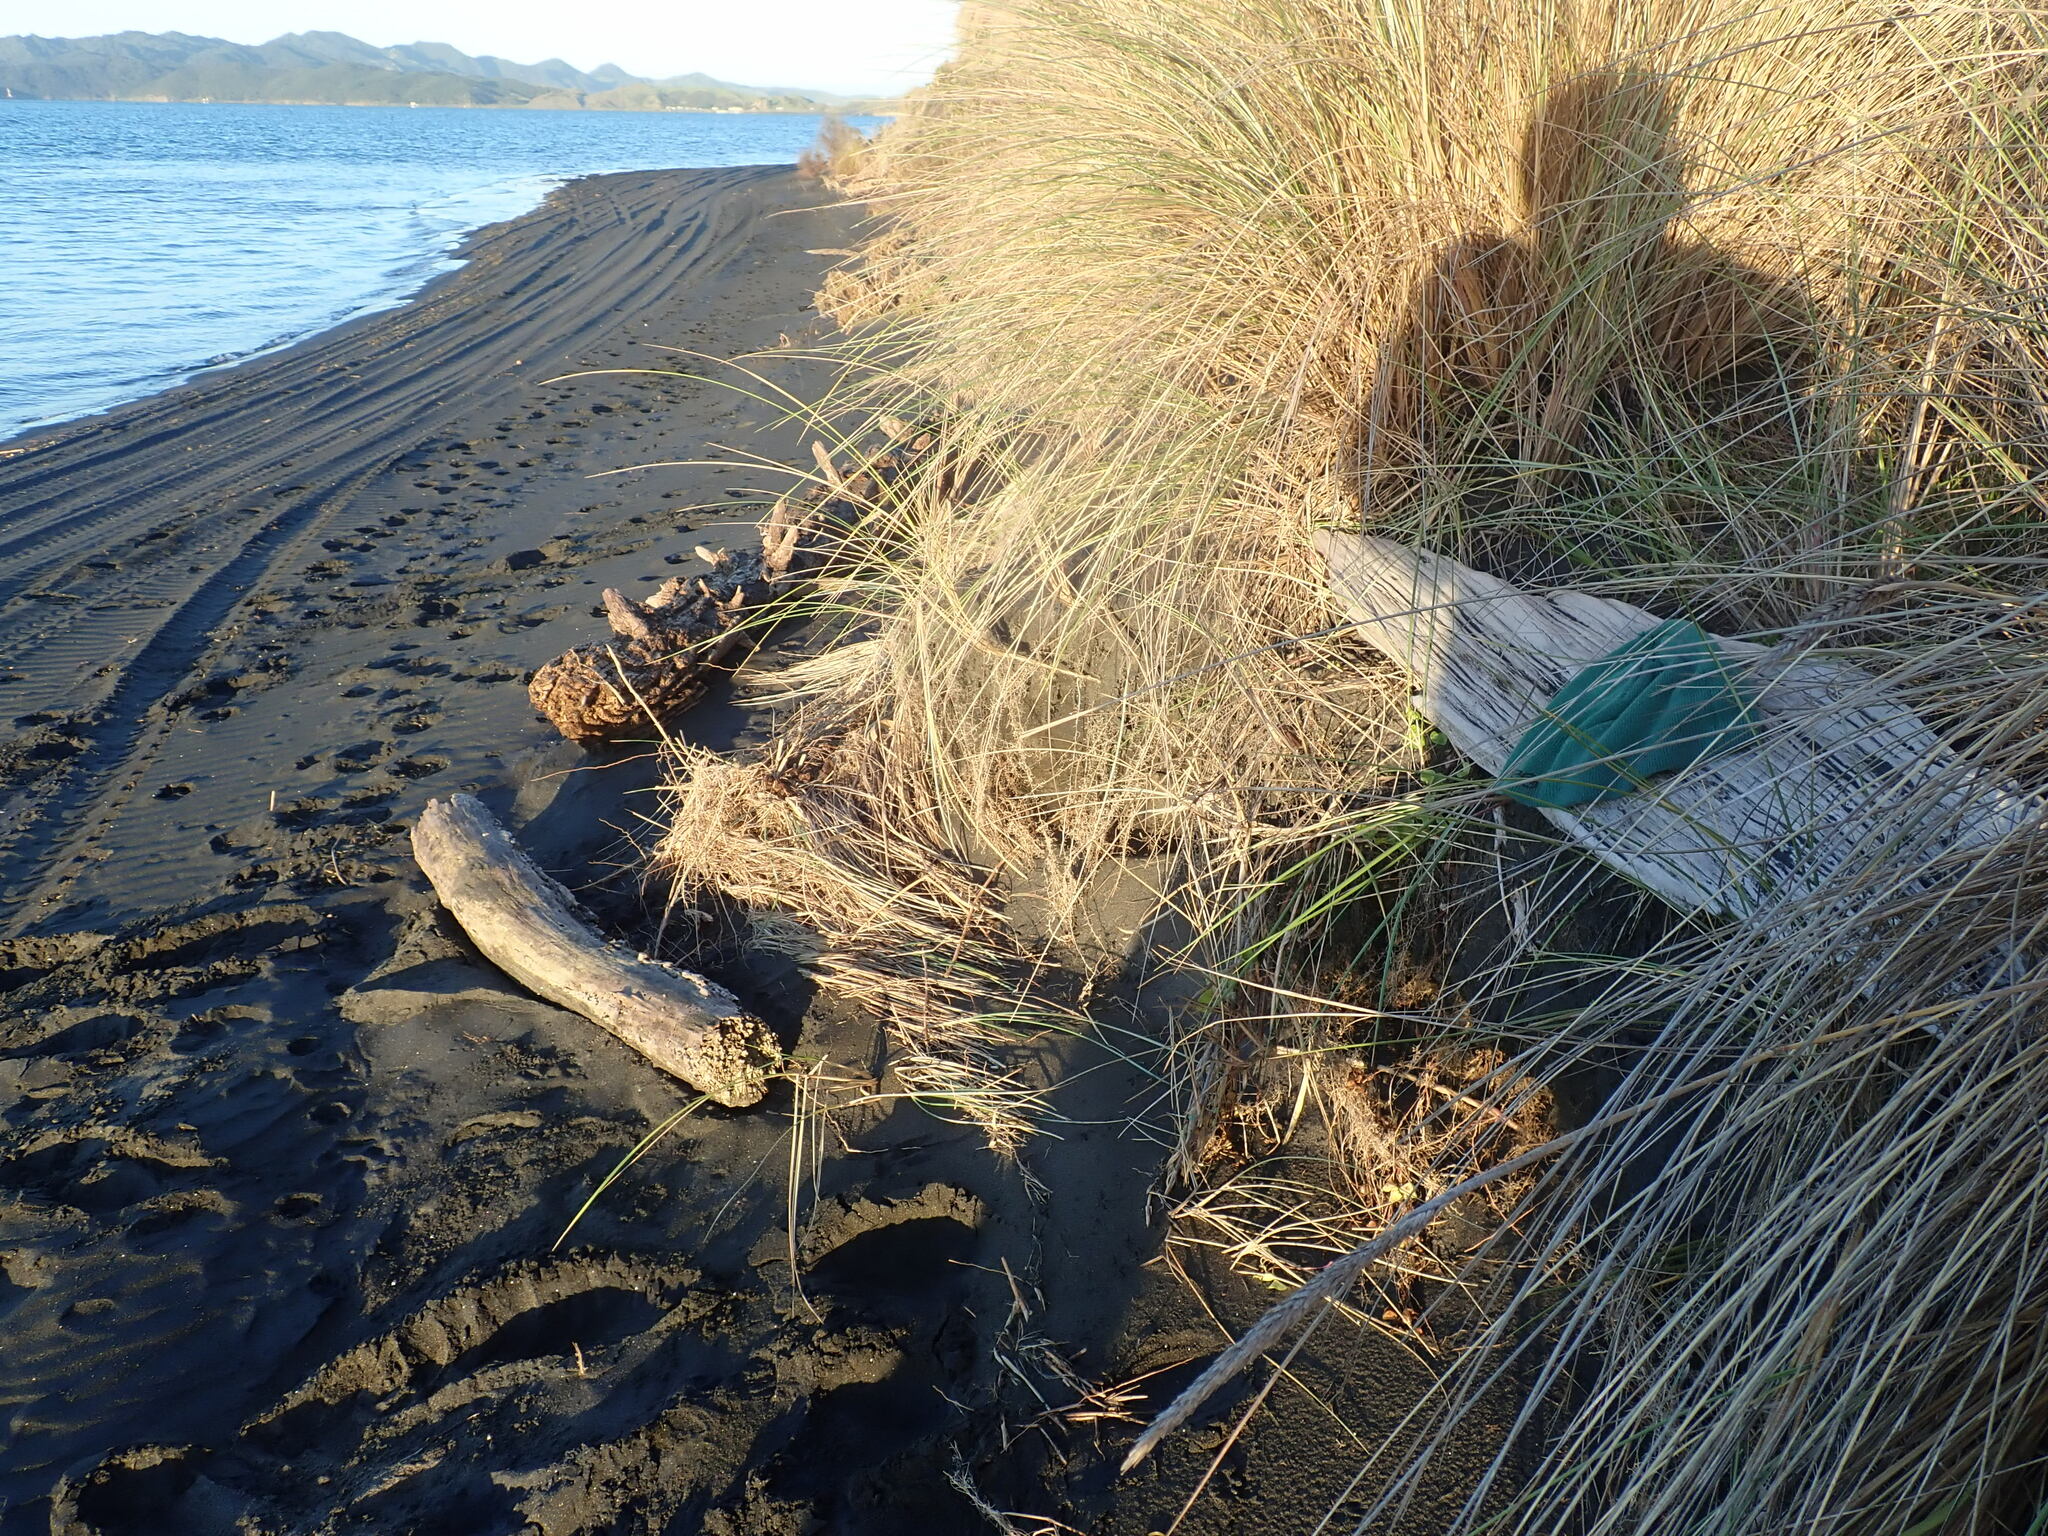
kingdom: Animalia
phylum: Arthropoda
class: Malacostraca
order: Isopoda
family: Porcellionidae
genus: Porcellio
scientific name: Porcellio scaber
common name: Common rough woodlouse
